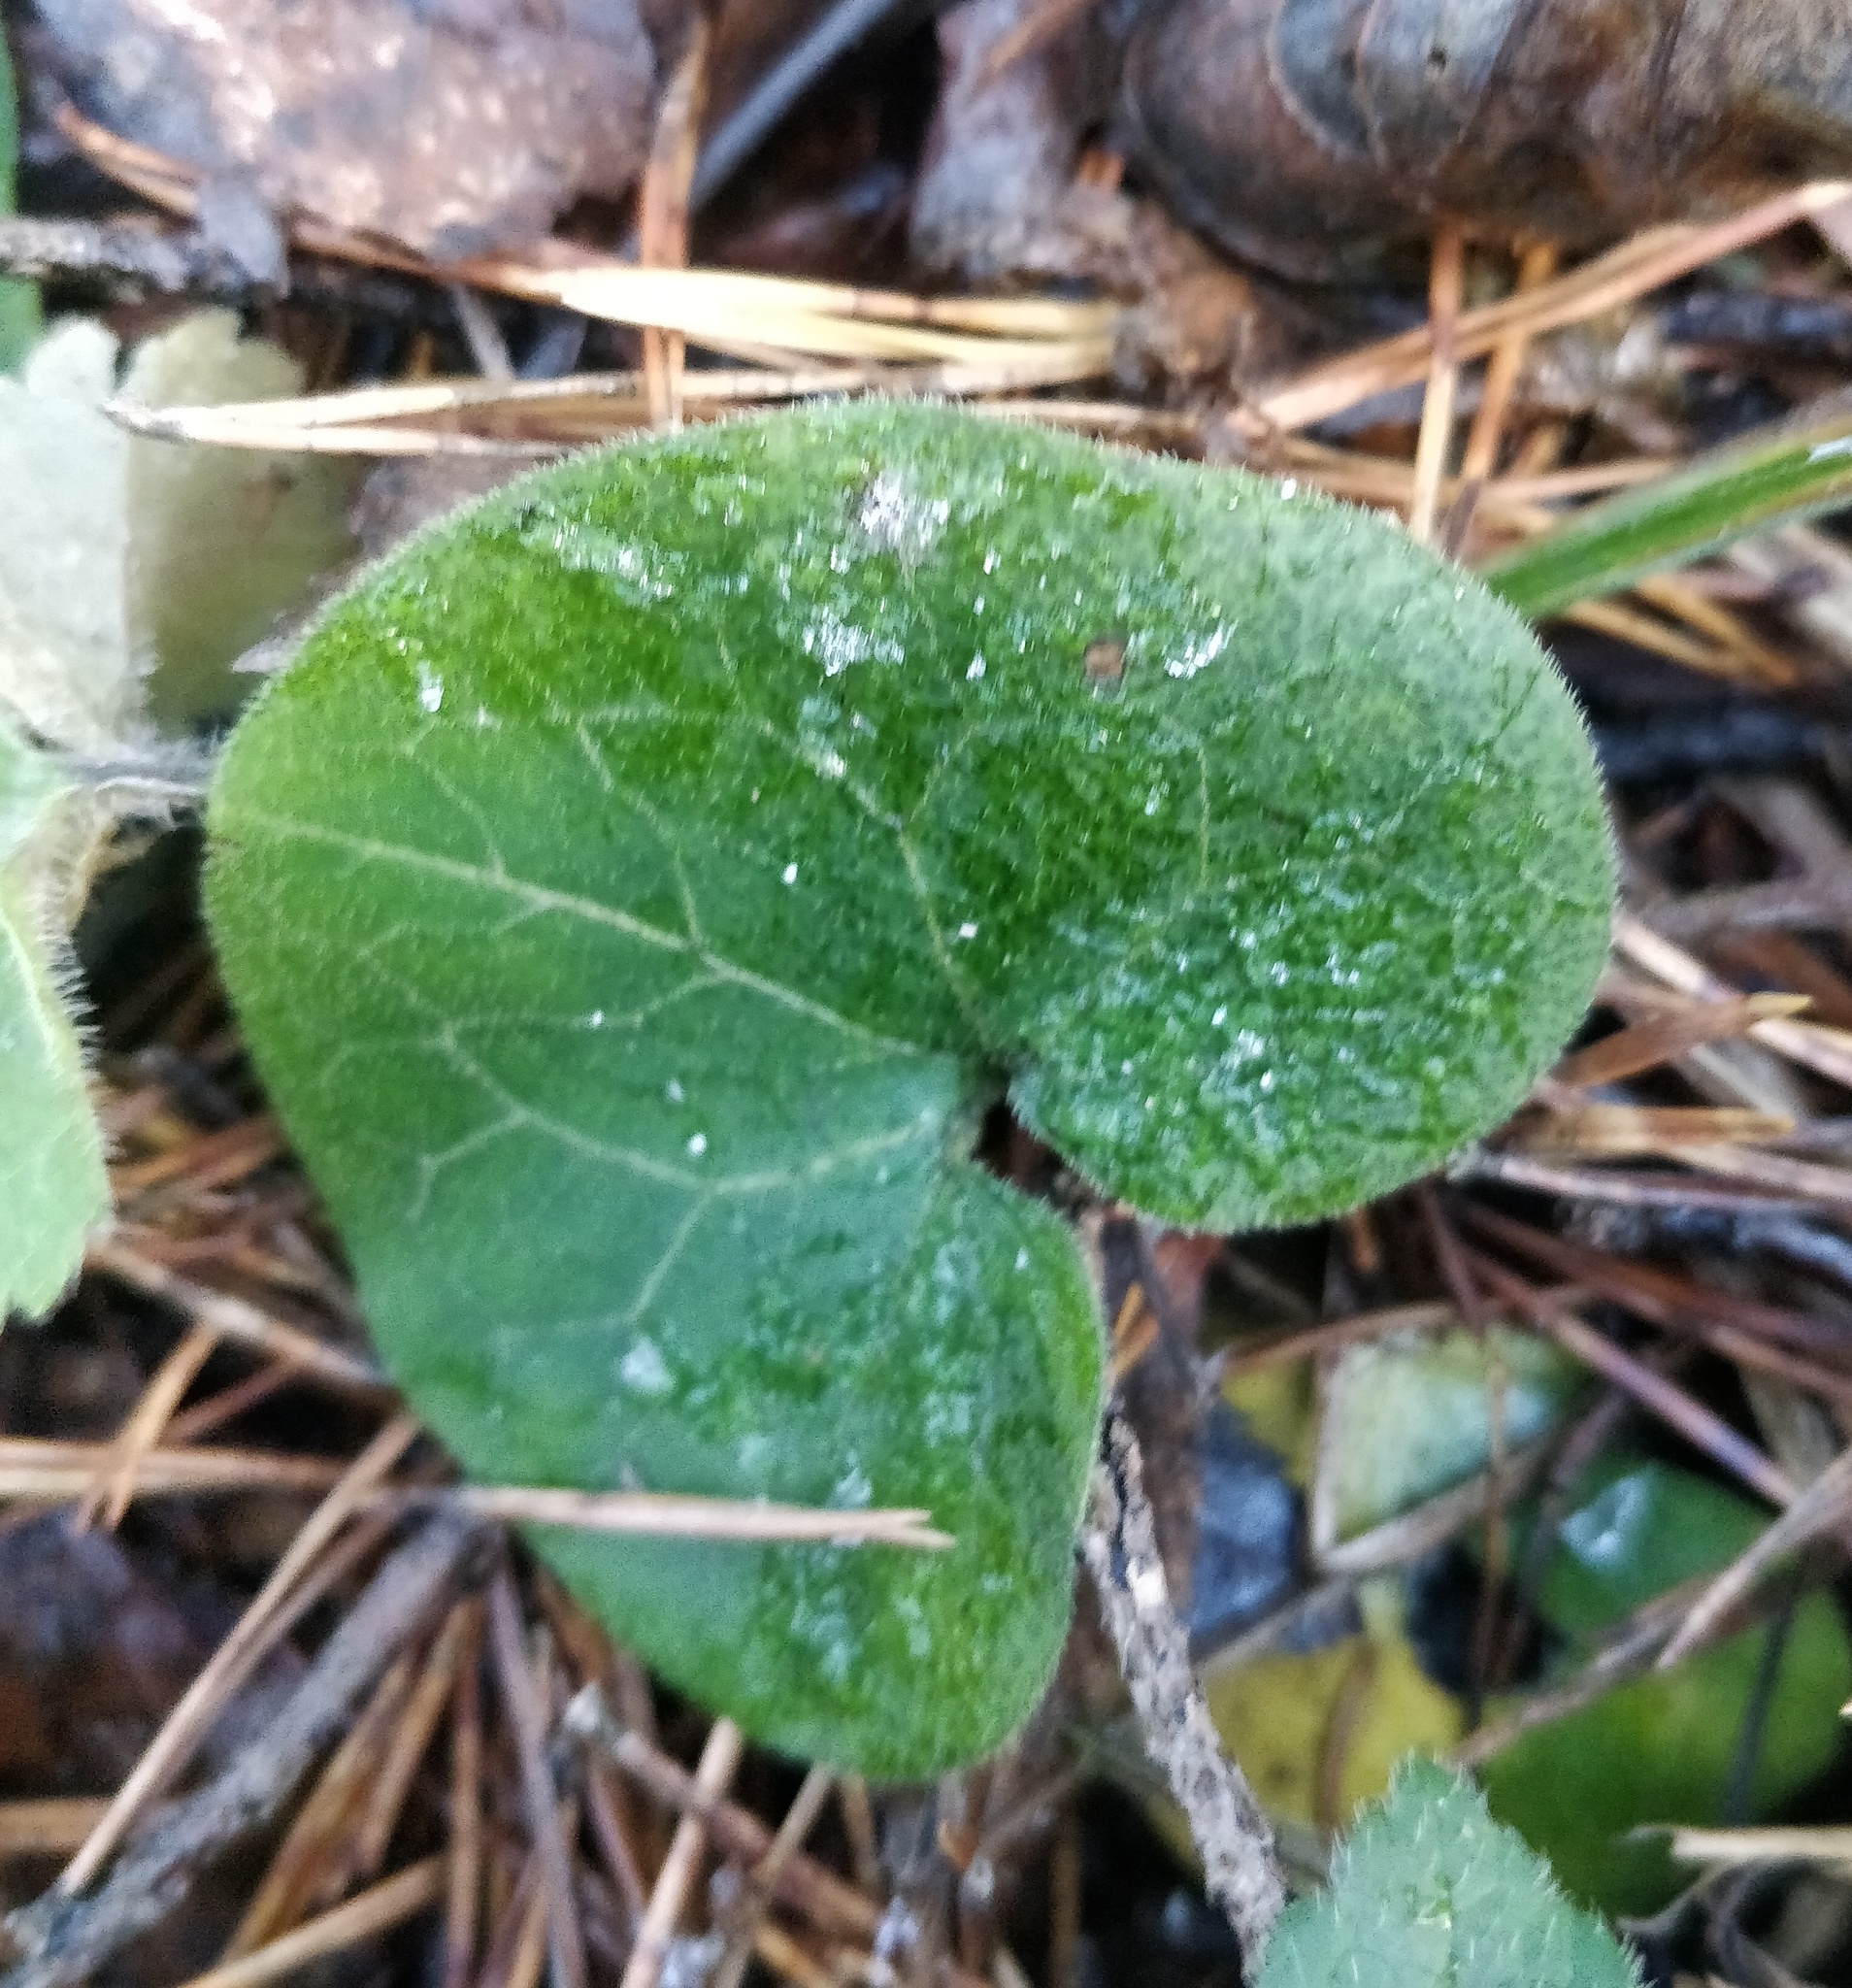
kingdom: Plantae
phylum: Tracheophyta
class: Magnoliopsida
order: Piperales
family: Aristolochiaceae
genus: Asarum
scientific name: Asarum europaeum
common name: Asarabacca
